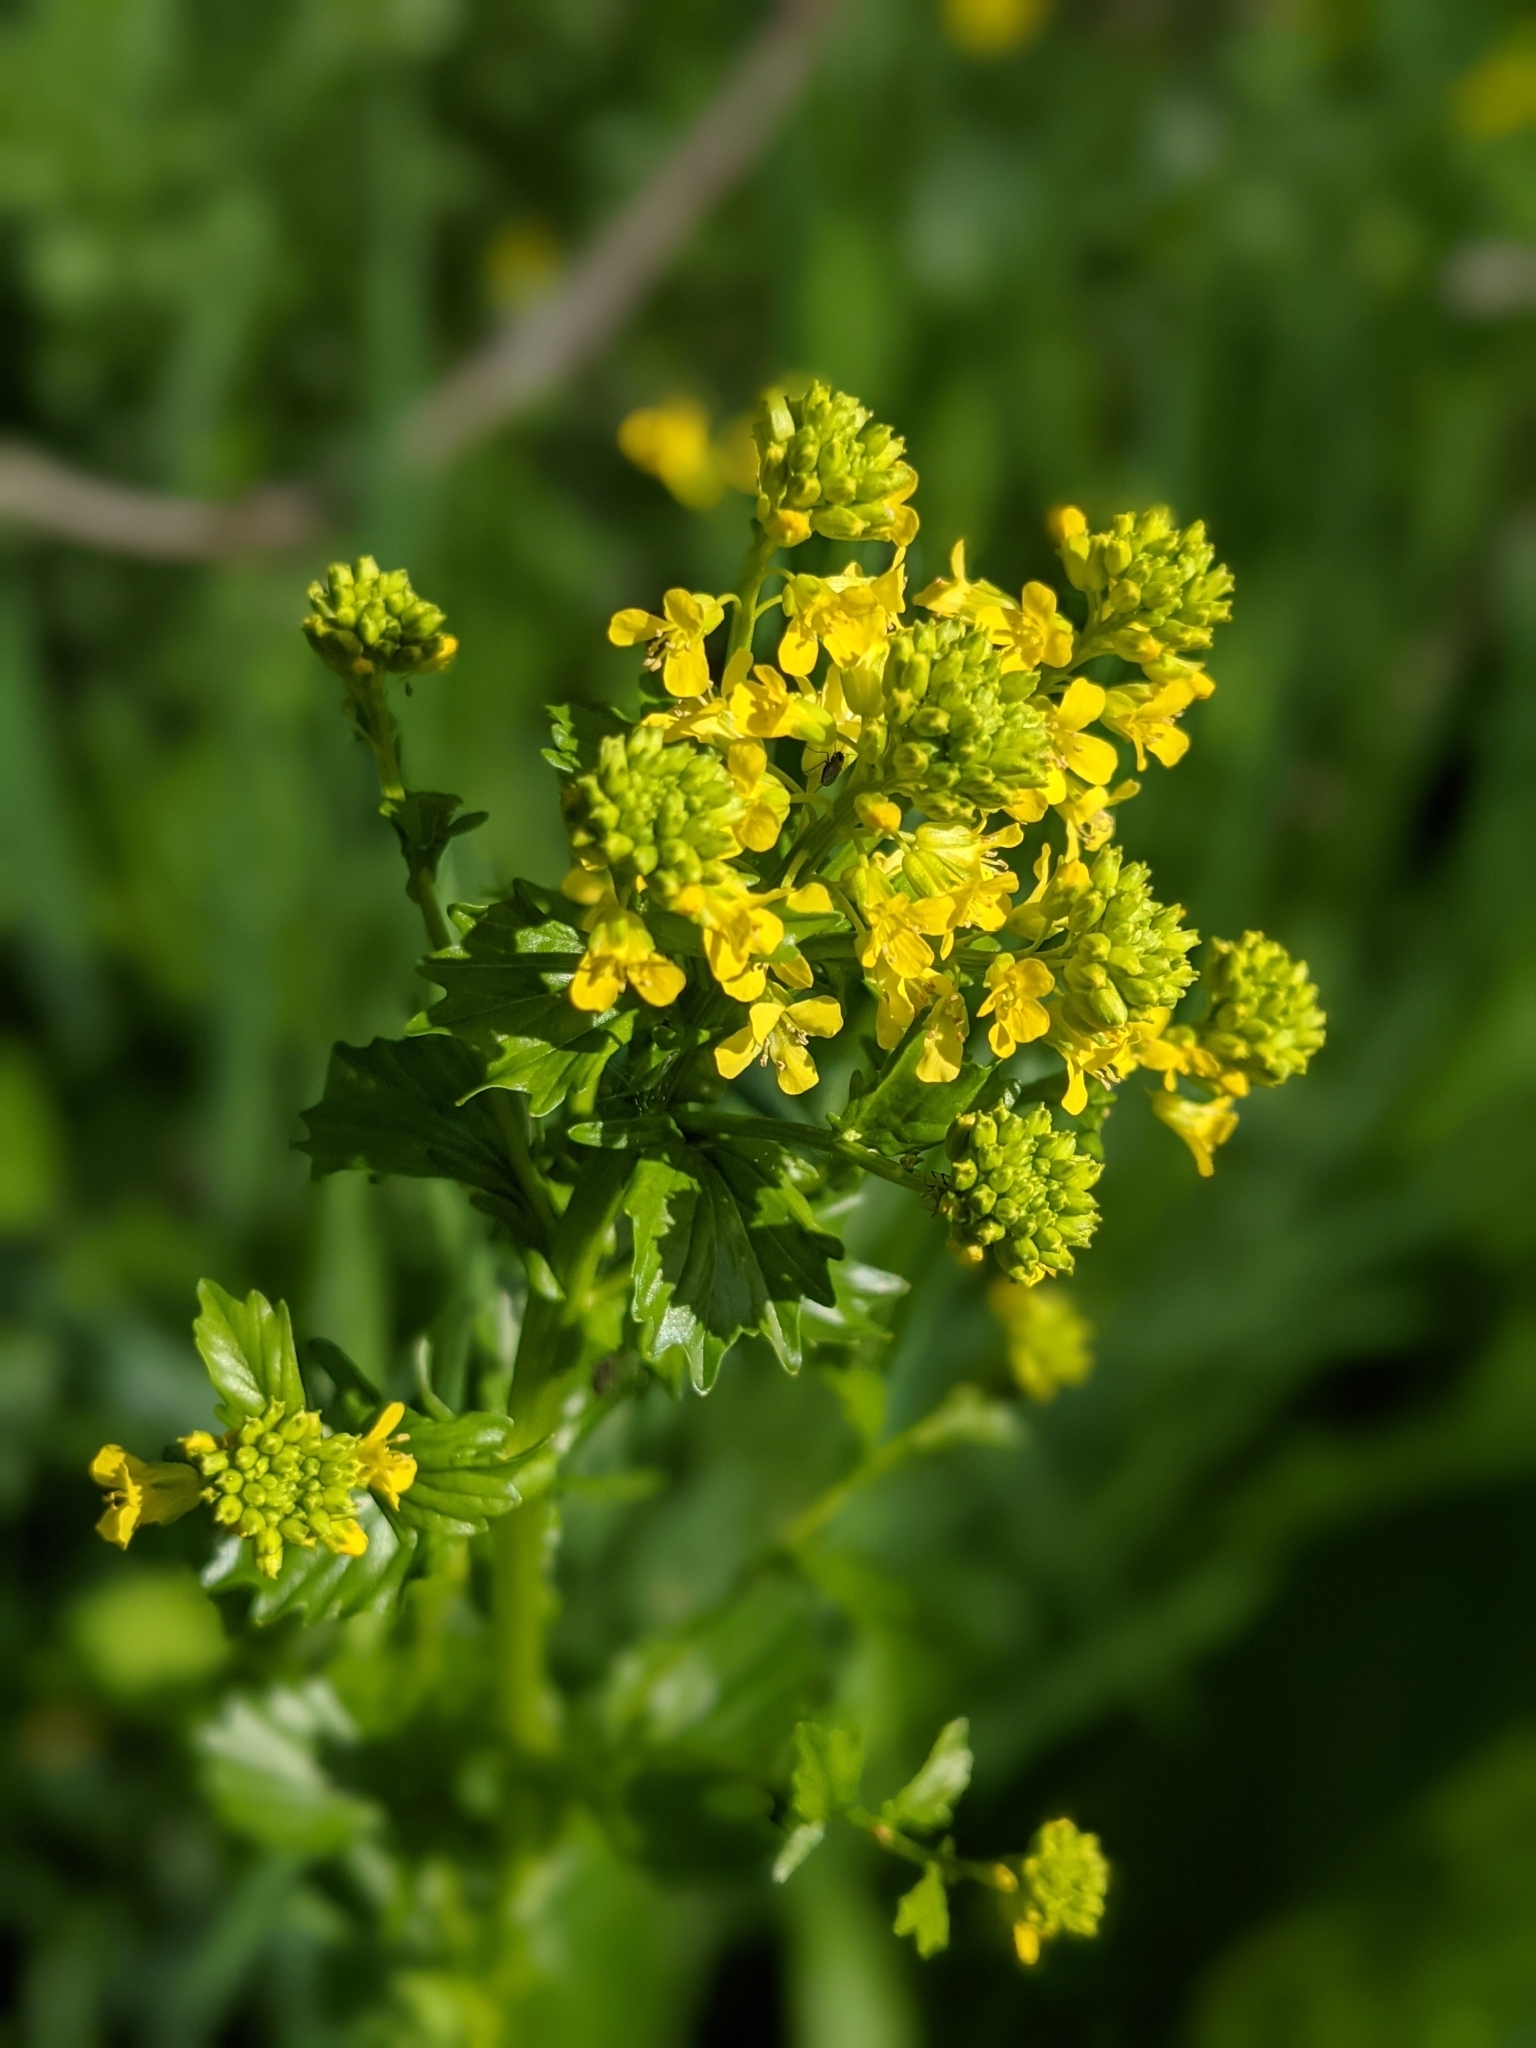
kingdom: Plantae
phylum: Tracheophyta
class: Magnoliopsida
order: Brassicales
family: Brassicaceae
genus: Barbarea
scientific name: Barbarea vulgaris
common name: Cressy-greens
